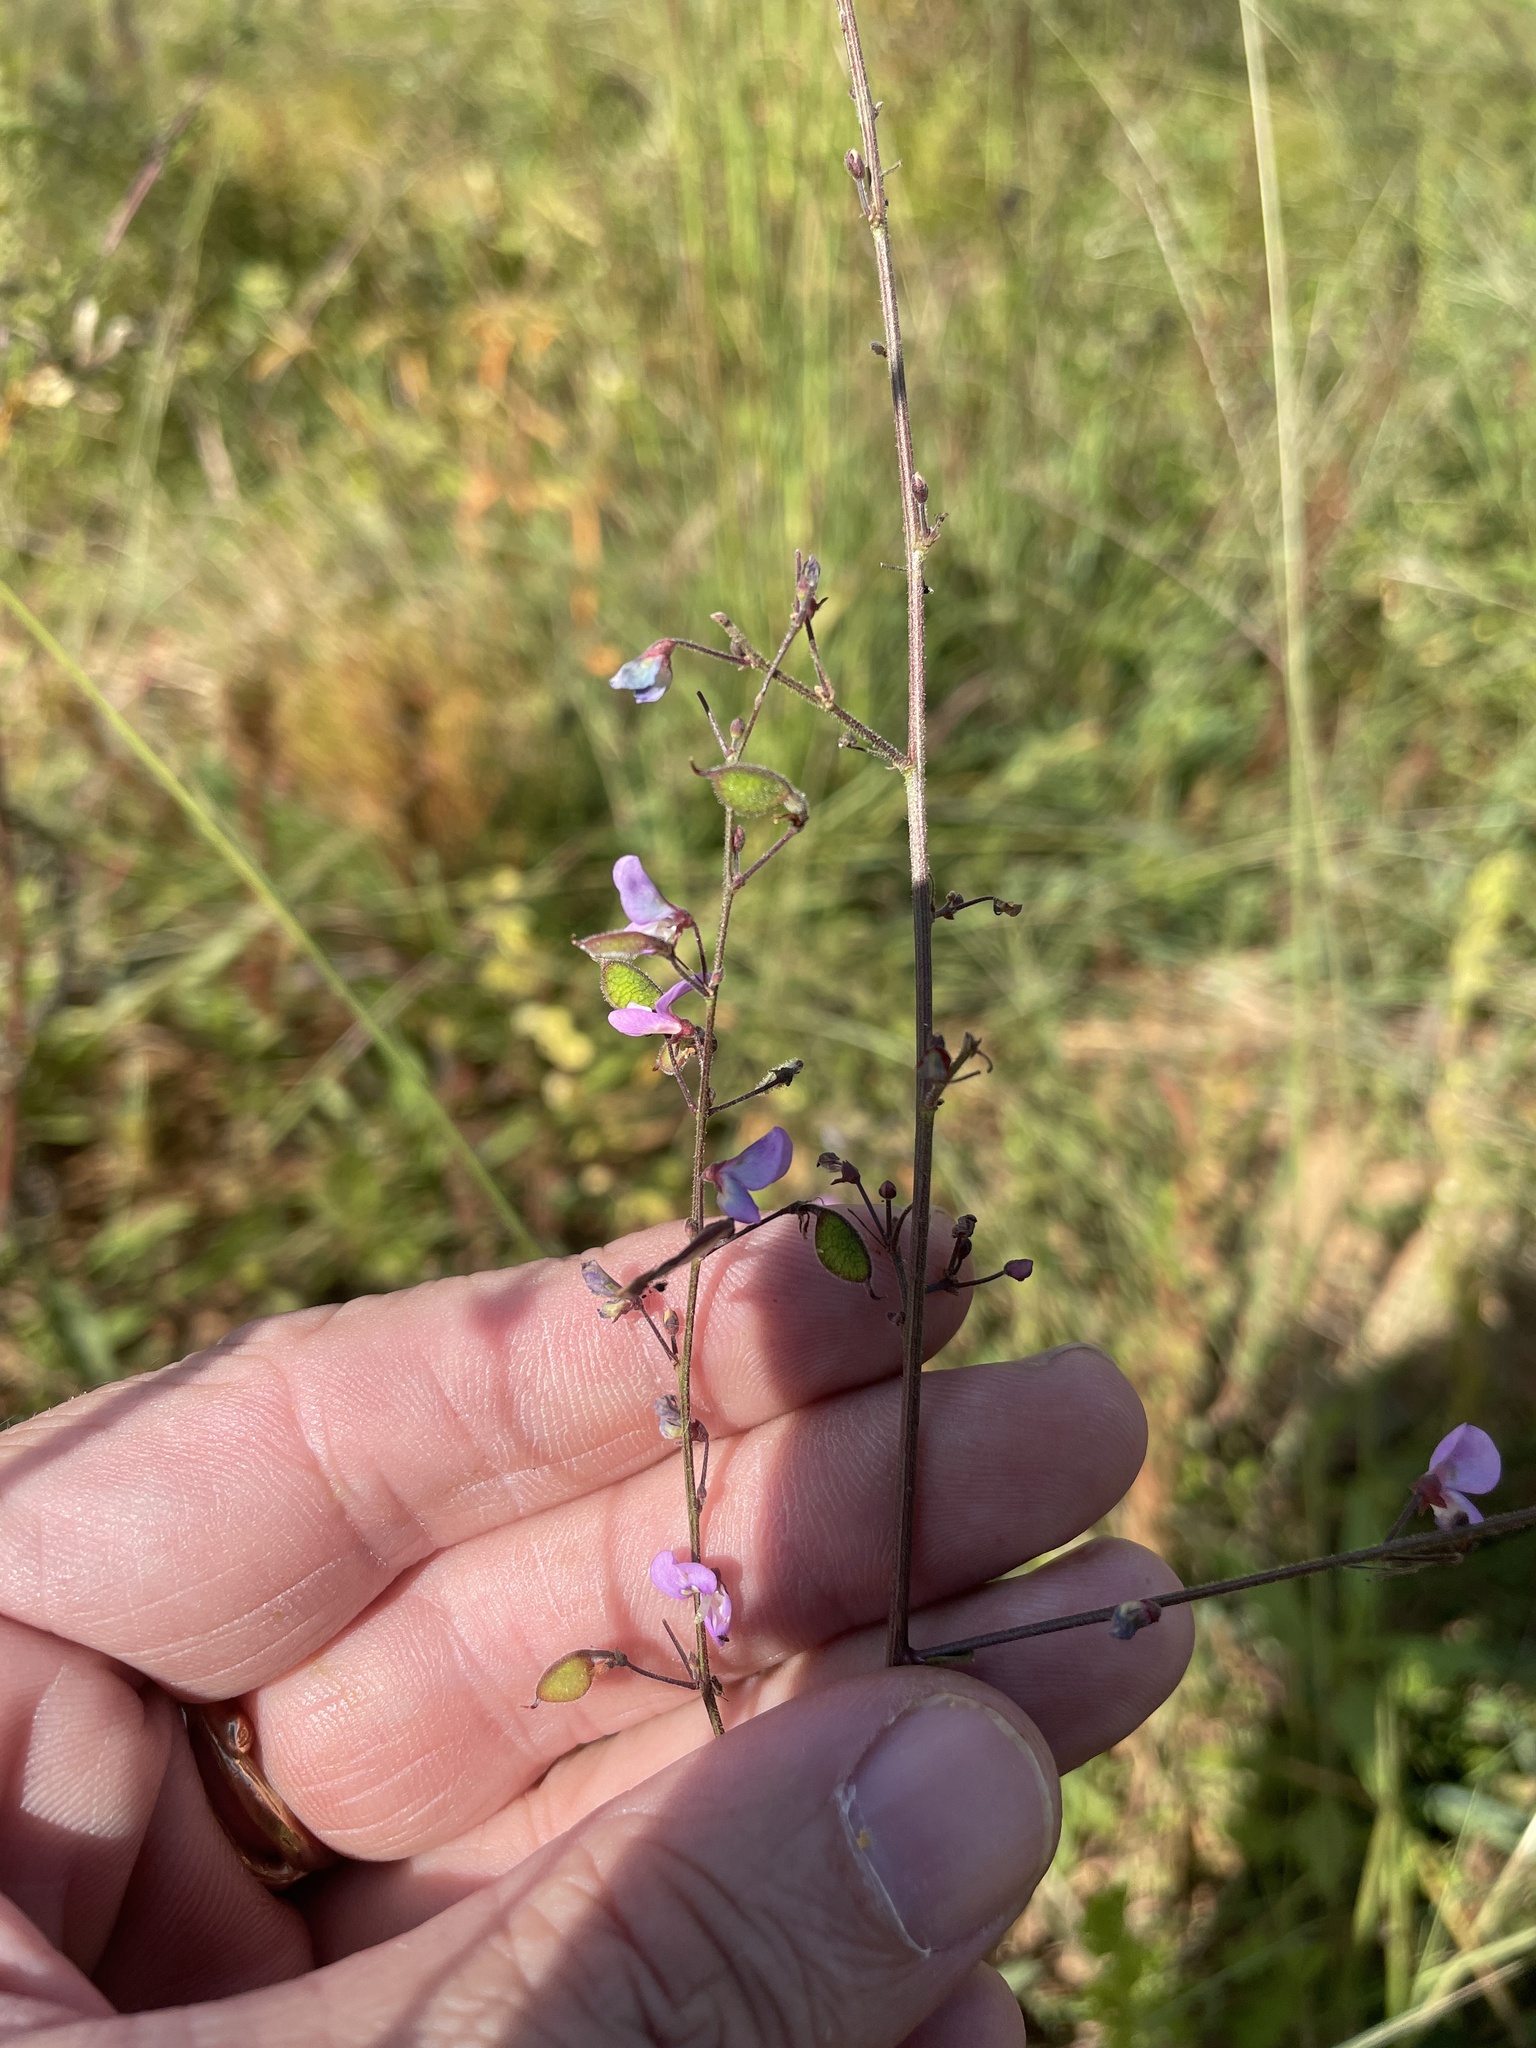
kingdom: Plantae
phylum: Tracheophyta
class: Magnoliopsida
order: Fabales
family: Fabaceae
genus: Desmodium
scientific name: Desmodium ciliare
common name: Hairy small-leaf ticktrefoil
